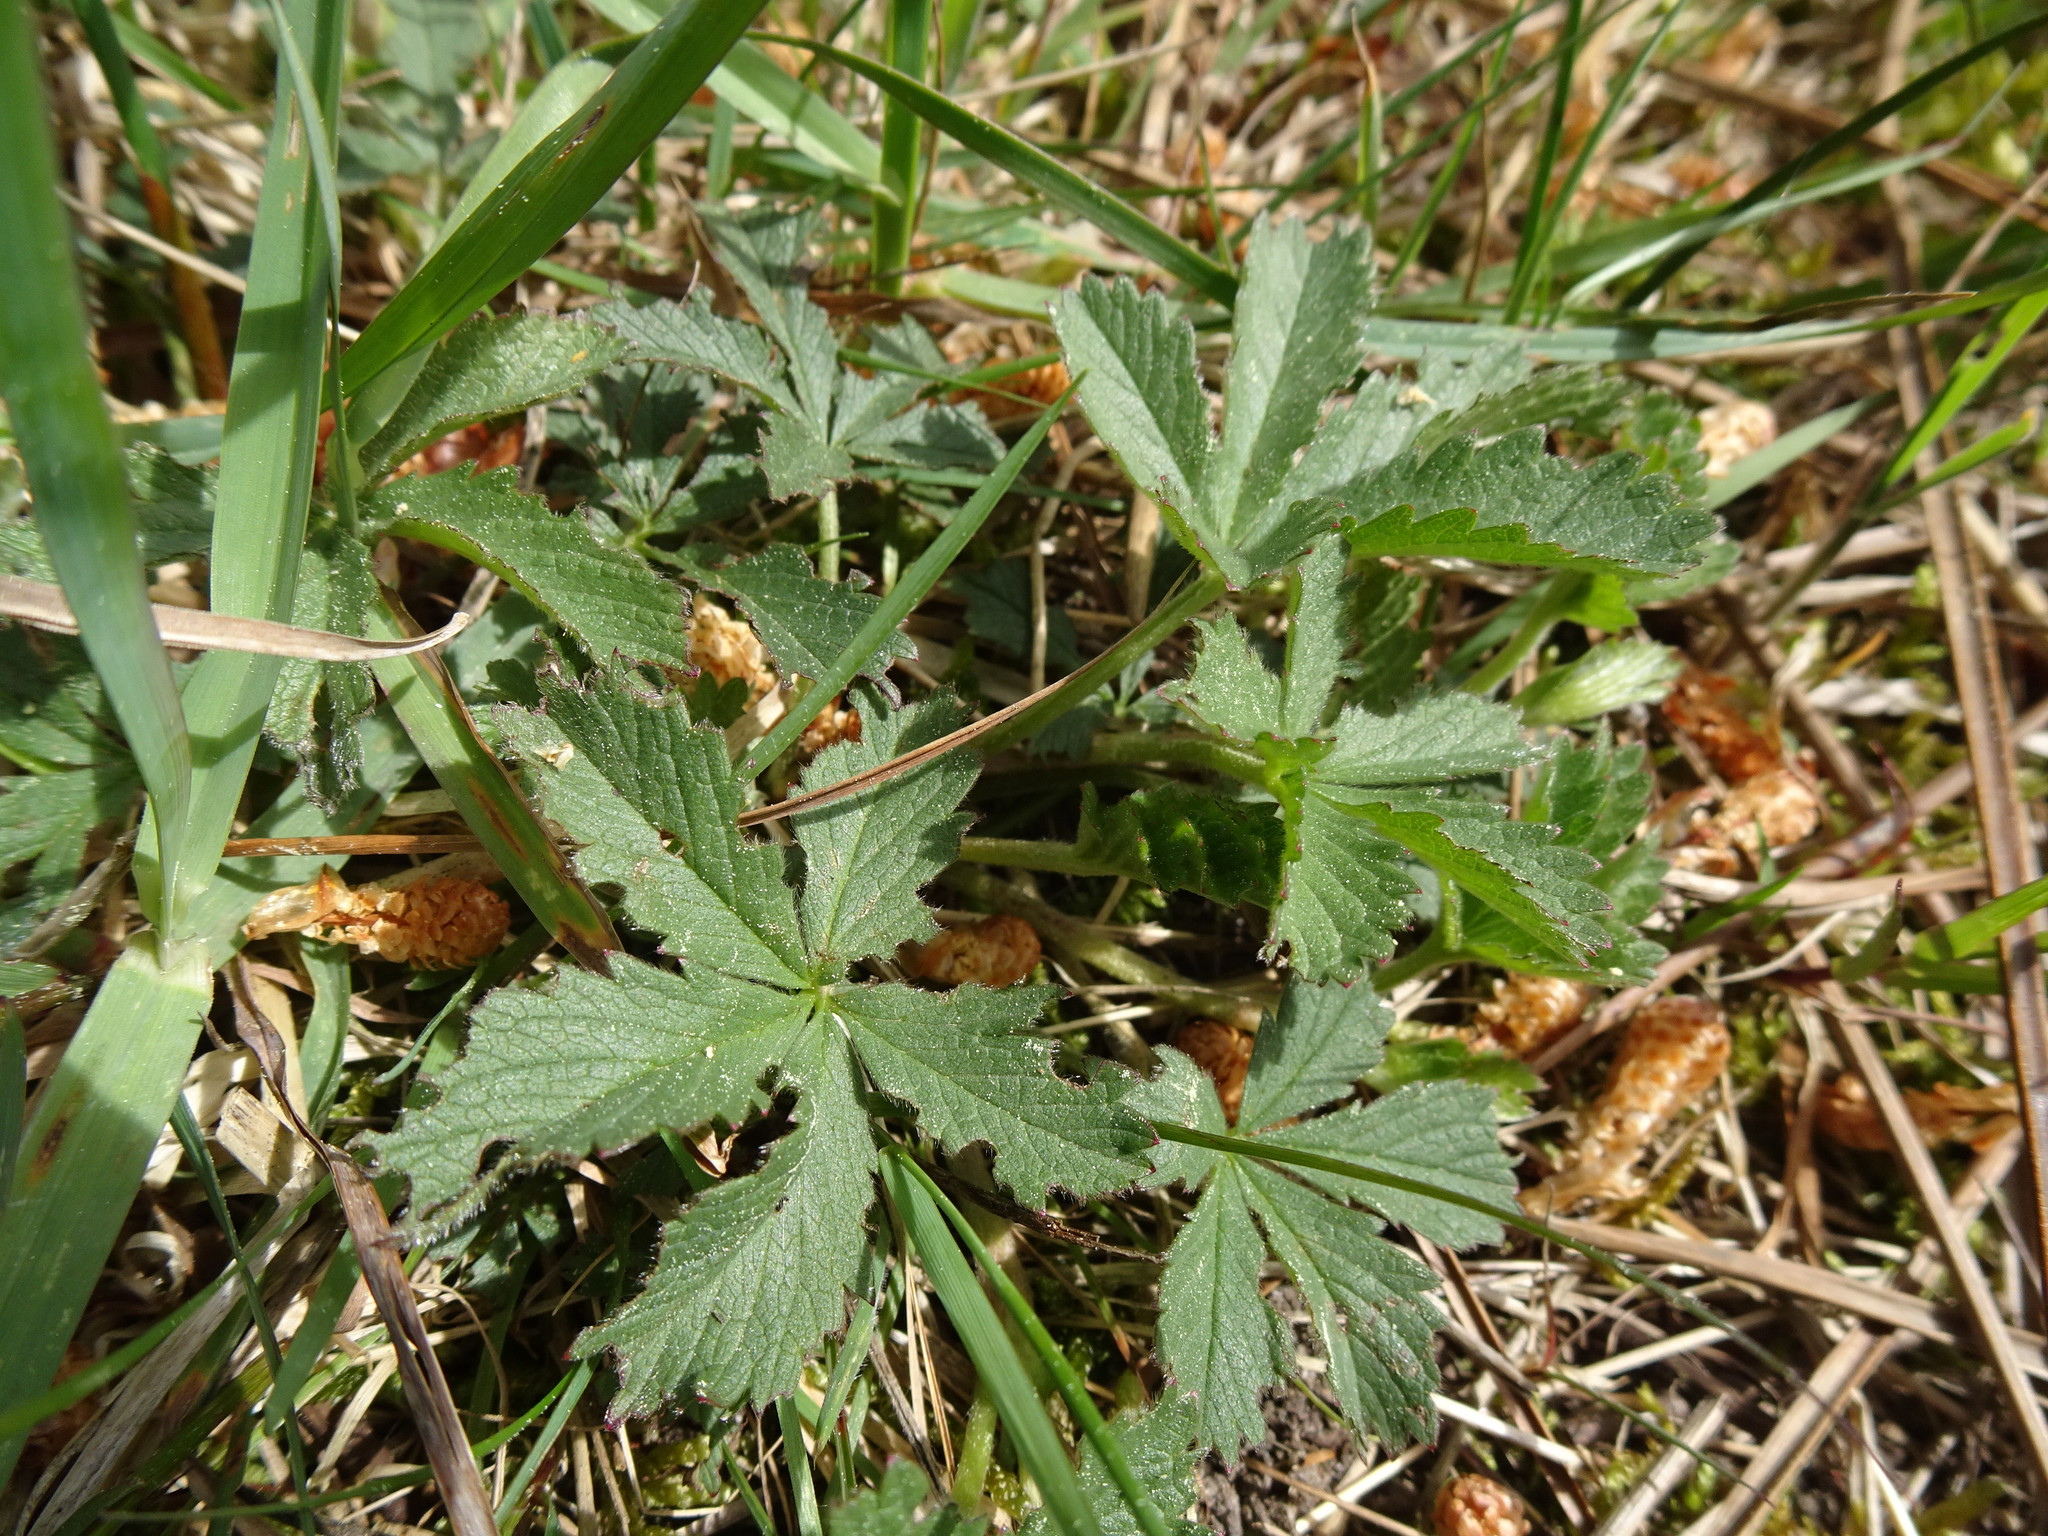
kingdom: Plantae
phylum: Tracheophyta
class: Magnoliopsida
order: Rosales
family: Rosaceae
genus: Potentilla
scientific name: Potentilla reptans
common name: Creeping cinquefoil
